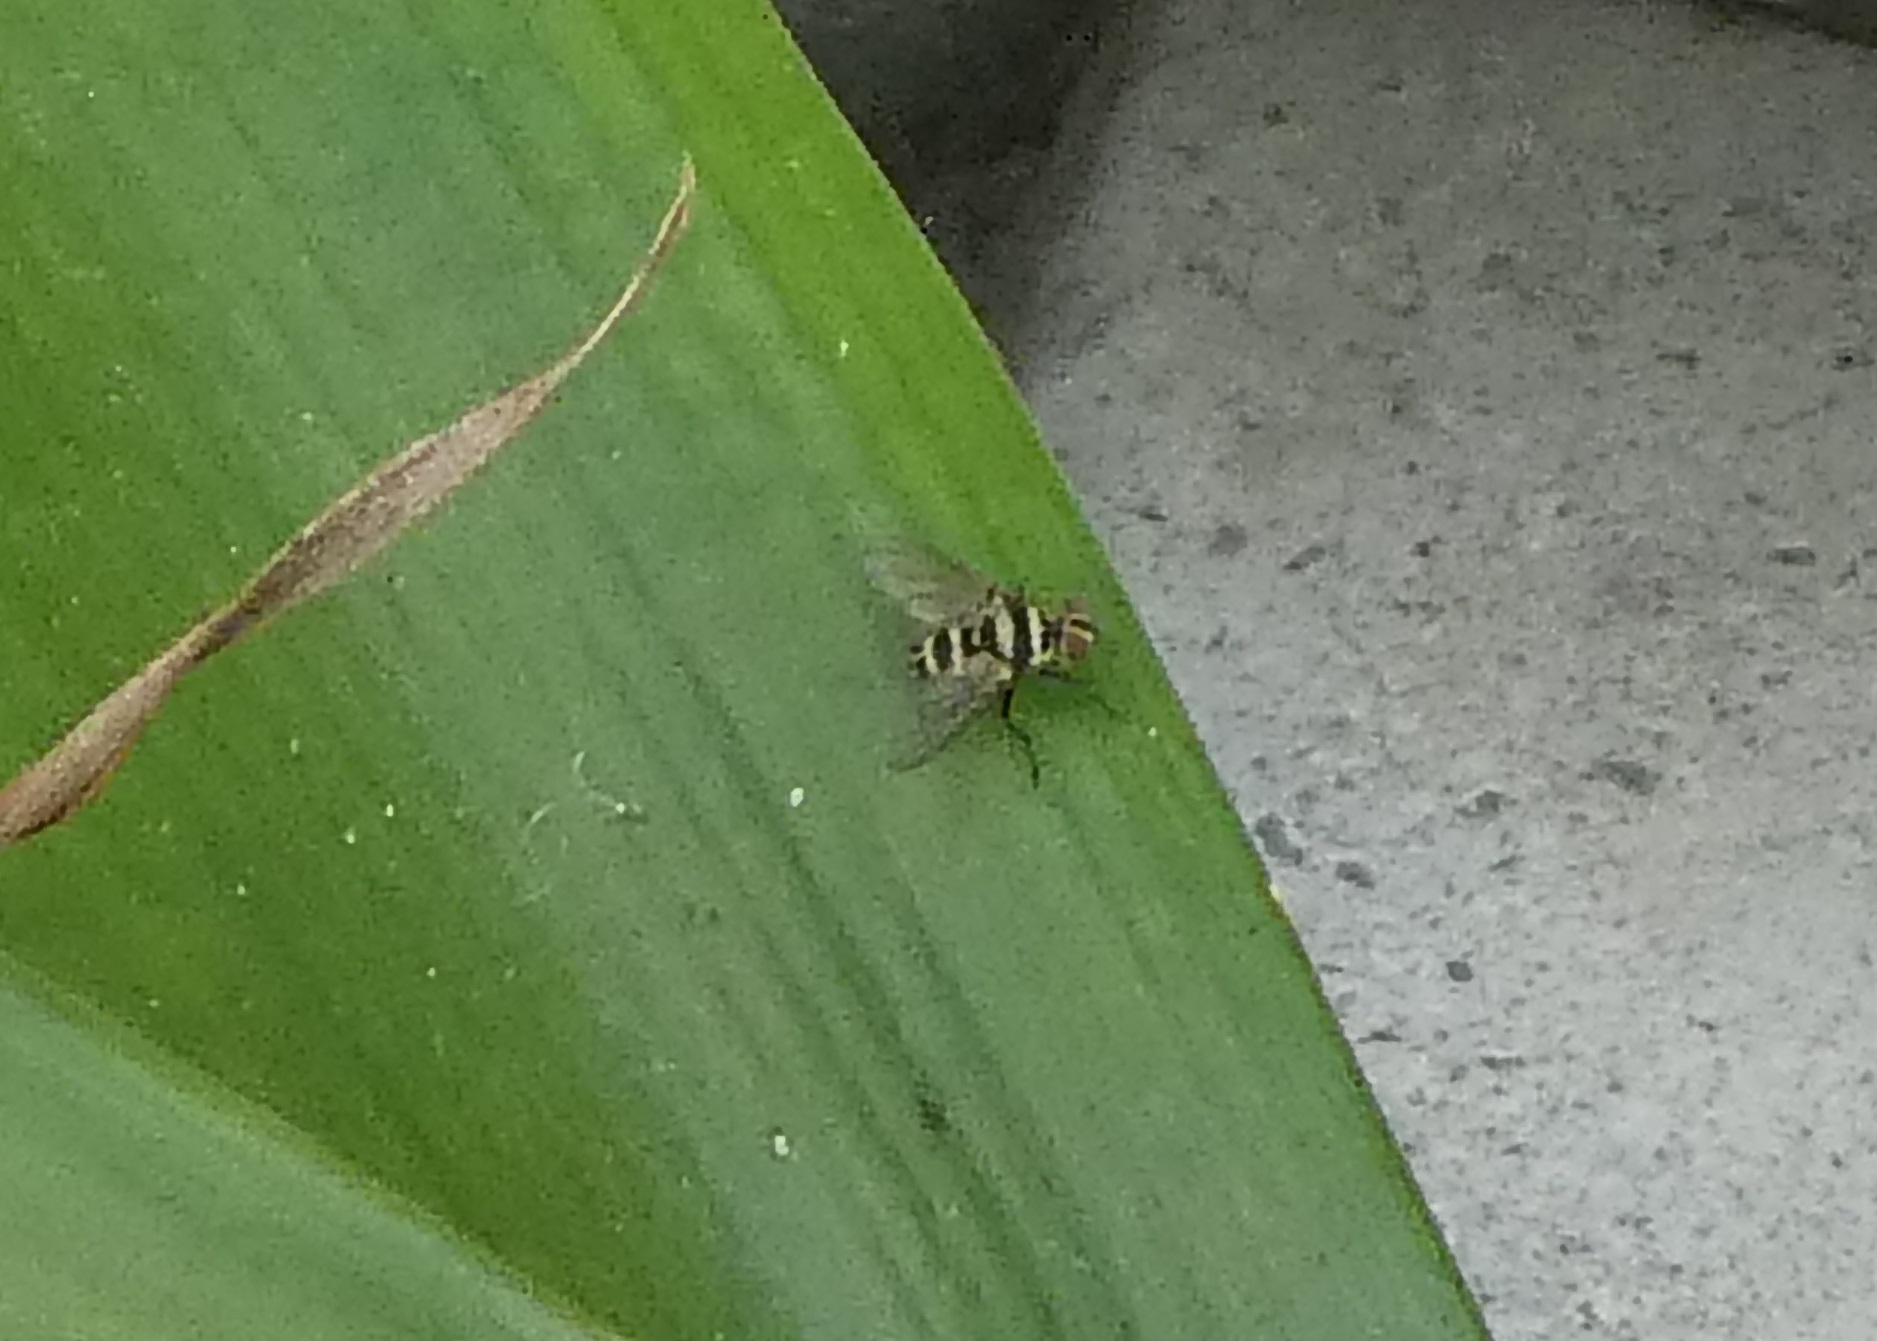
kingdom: Animalia
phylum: Arthropoda
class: Insecta
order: Diptera
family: Tachinidae
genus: Trigonospila
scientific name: Trigonospila brevifacies
